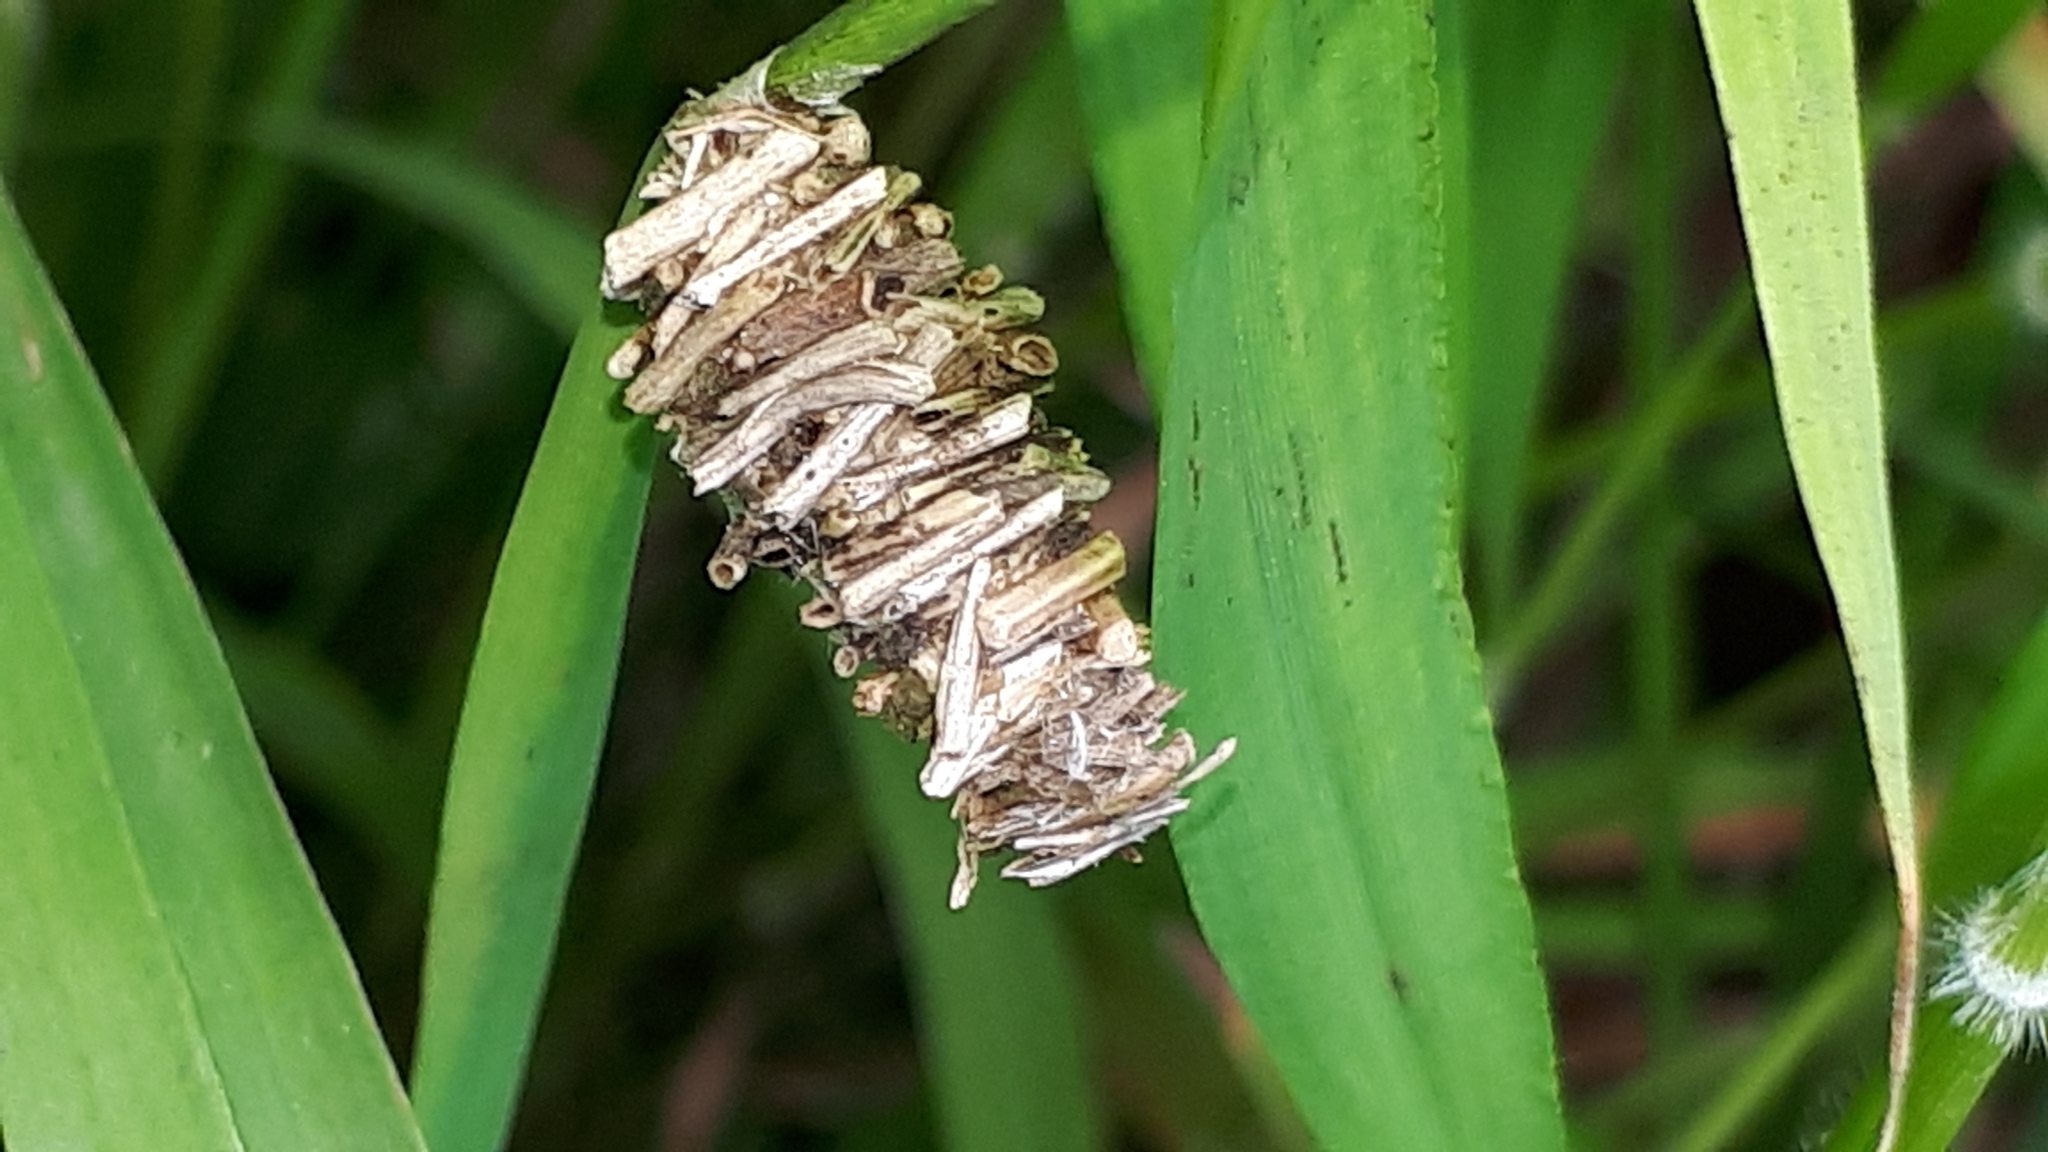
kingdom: Animalia
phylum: Arthropoda
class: Insecta
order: Lepidoptera
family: Psychidae
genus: Megalophanes
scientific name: Megalophanes viciella
